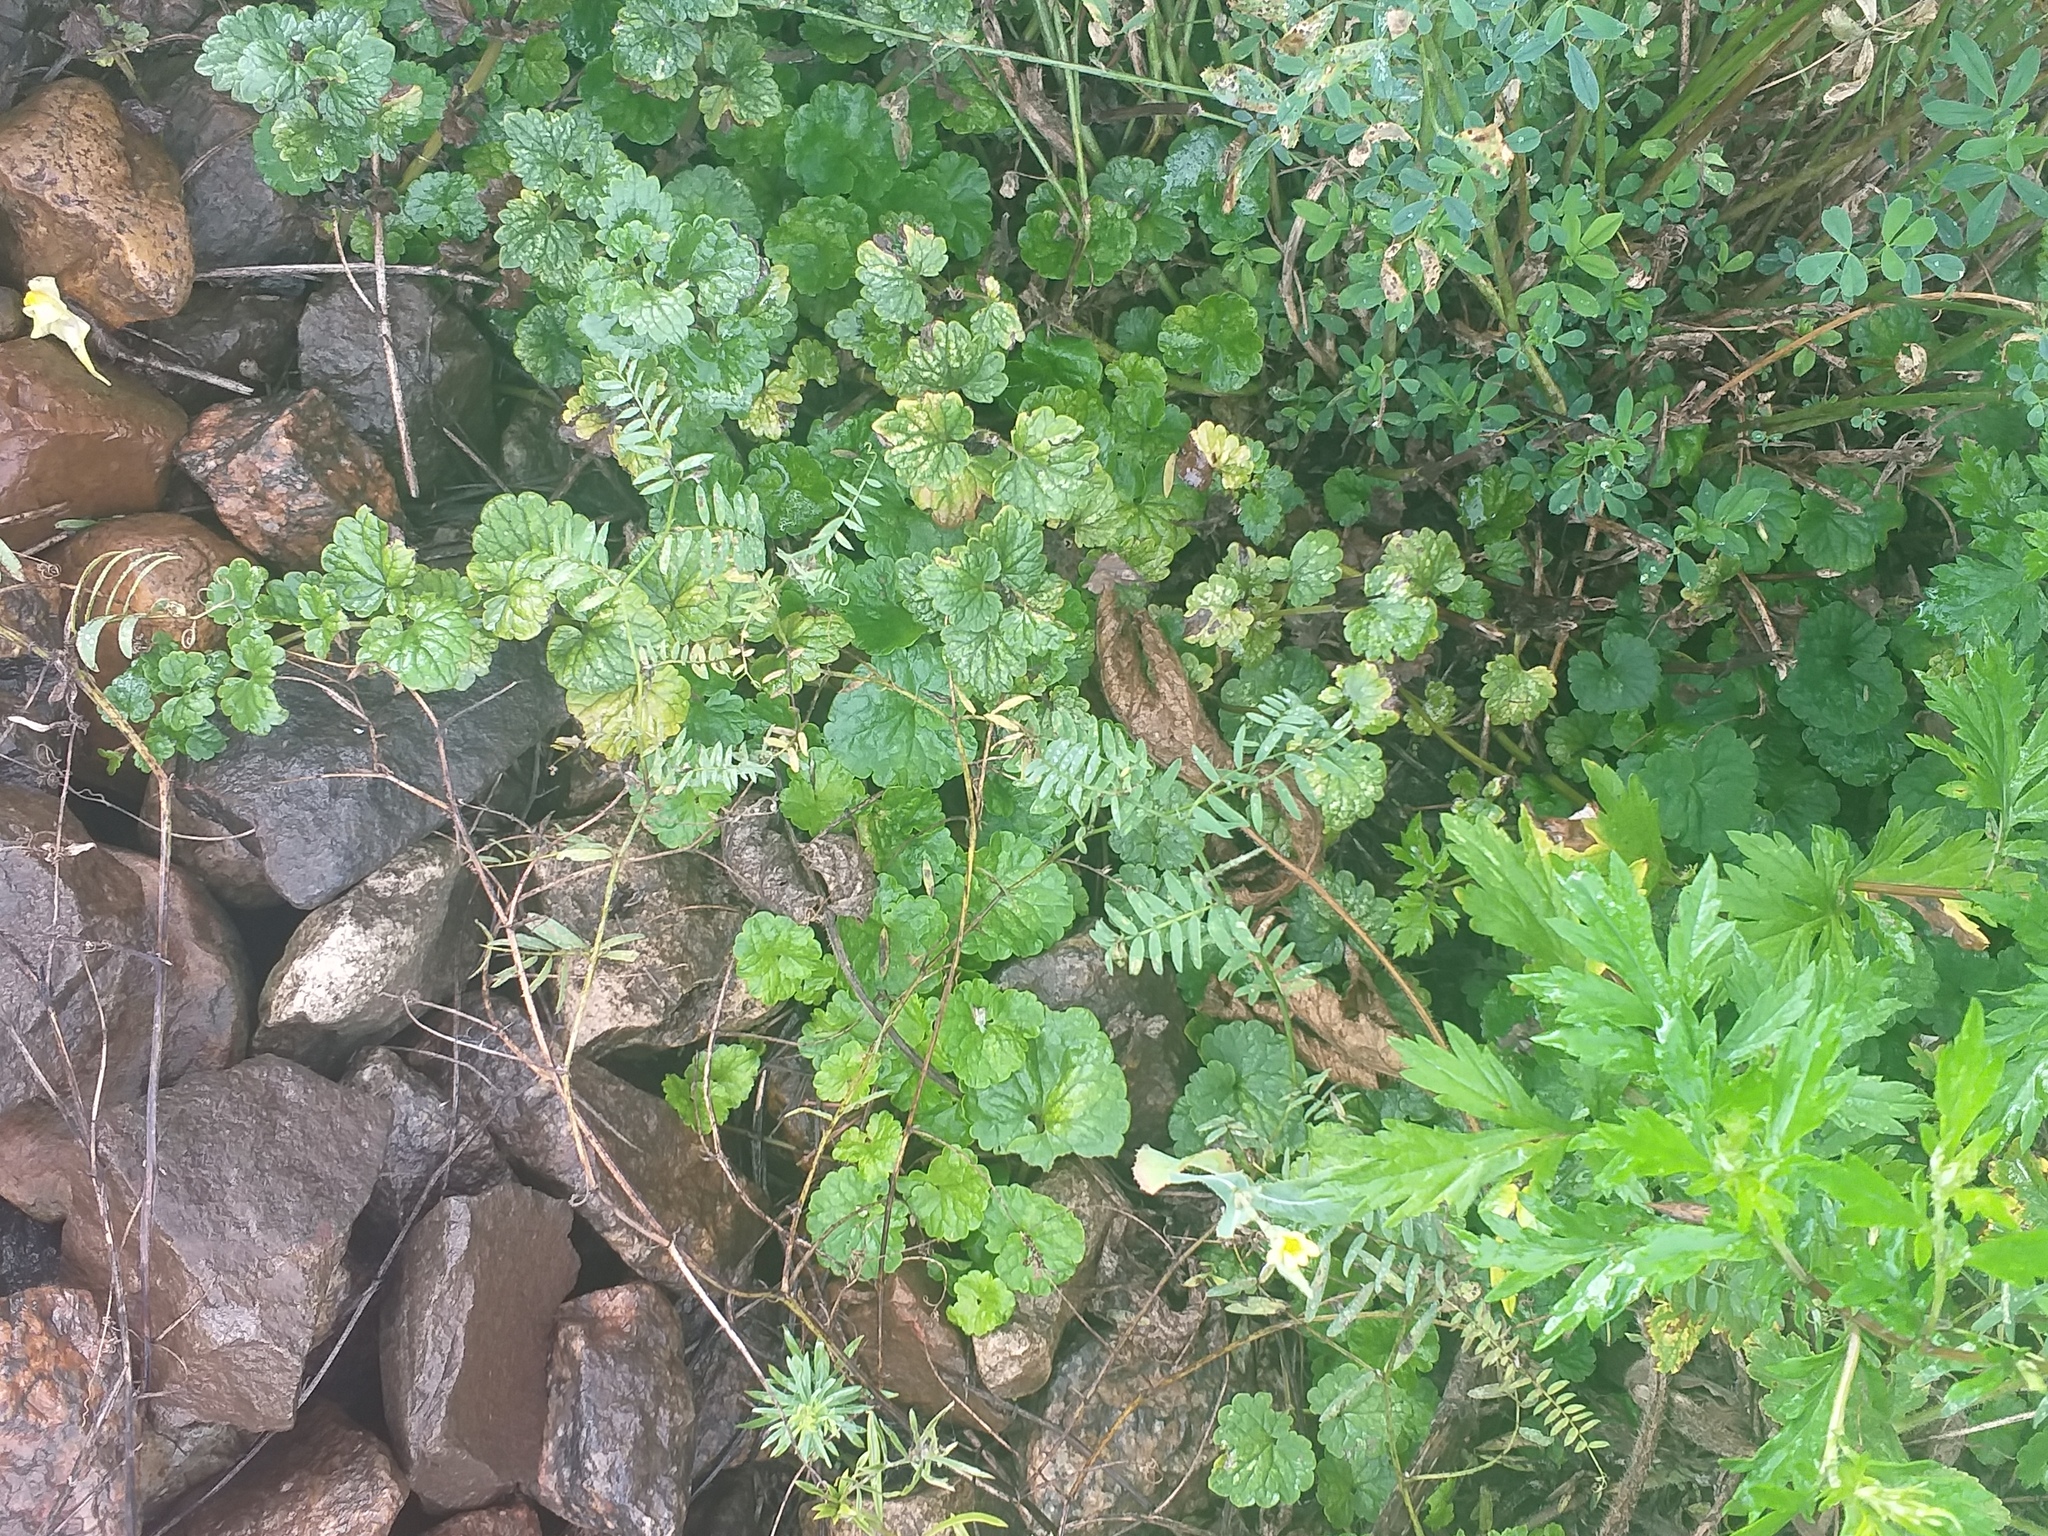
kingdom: Plantae
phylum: Tracheophyta
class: Magnoliopsida
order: Lamiales
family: Lamiaceae
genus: Glechoma
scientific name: Glechoma hederacea
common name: Ground ivy
